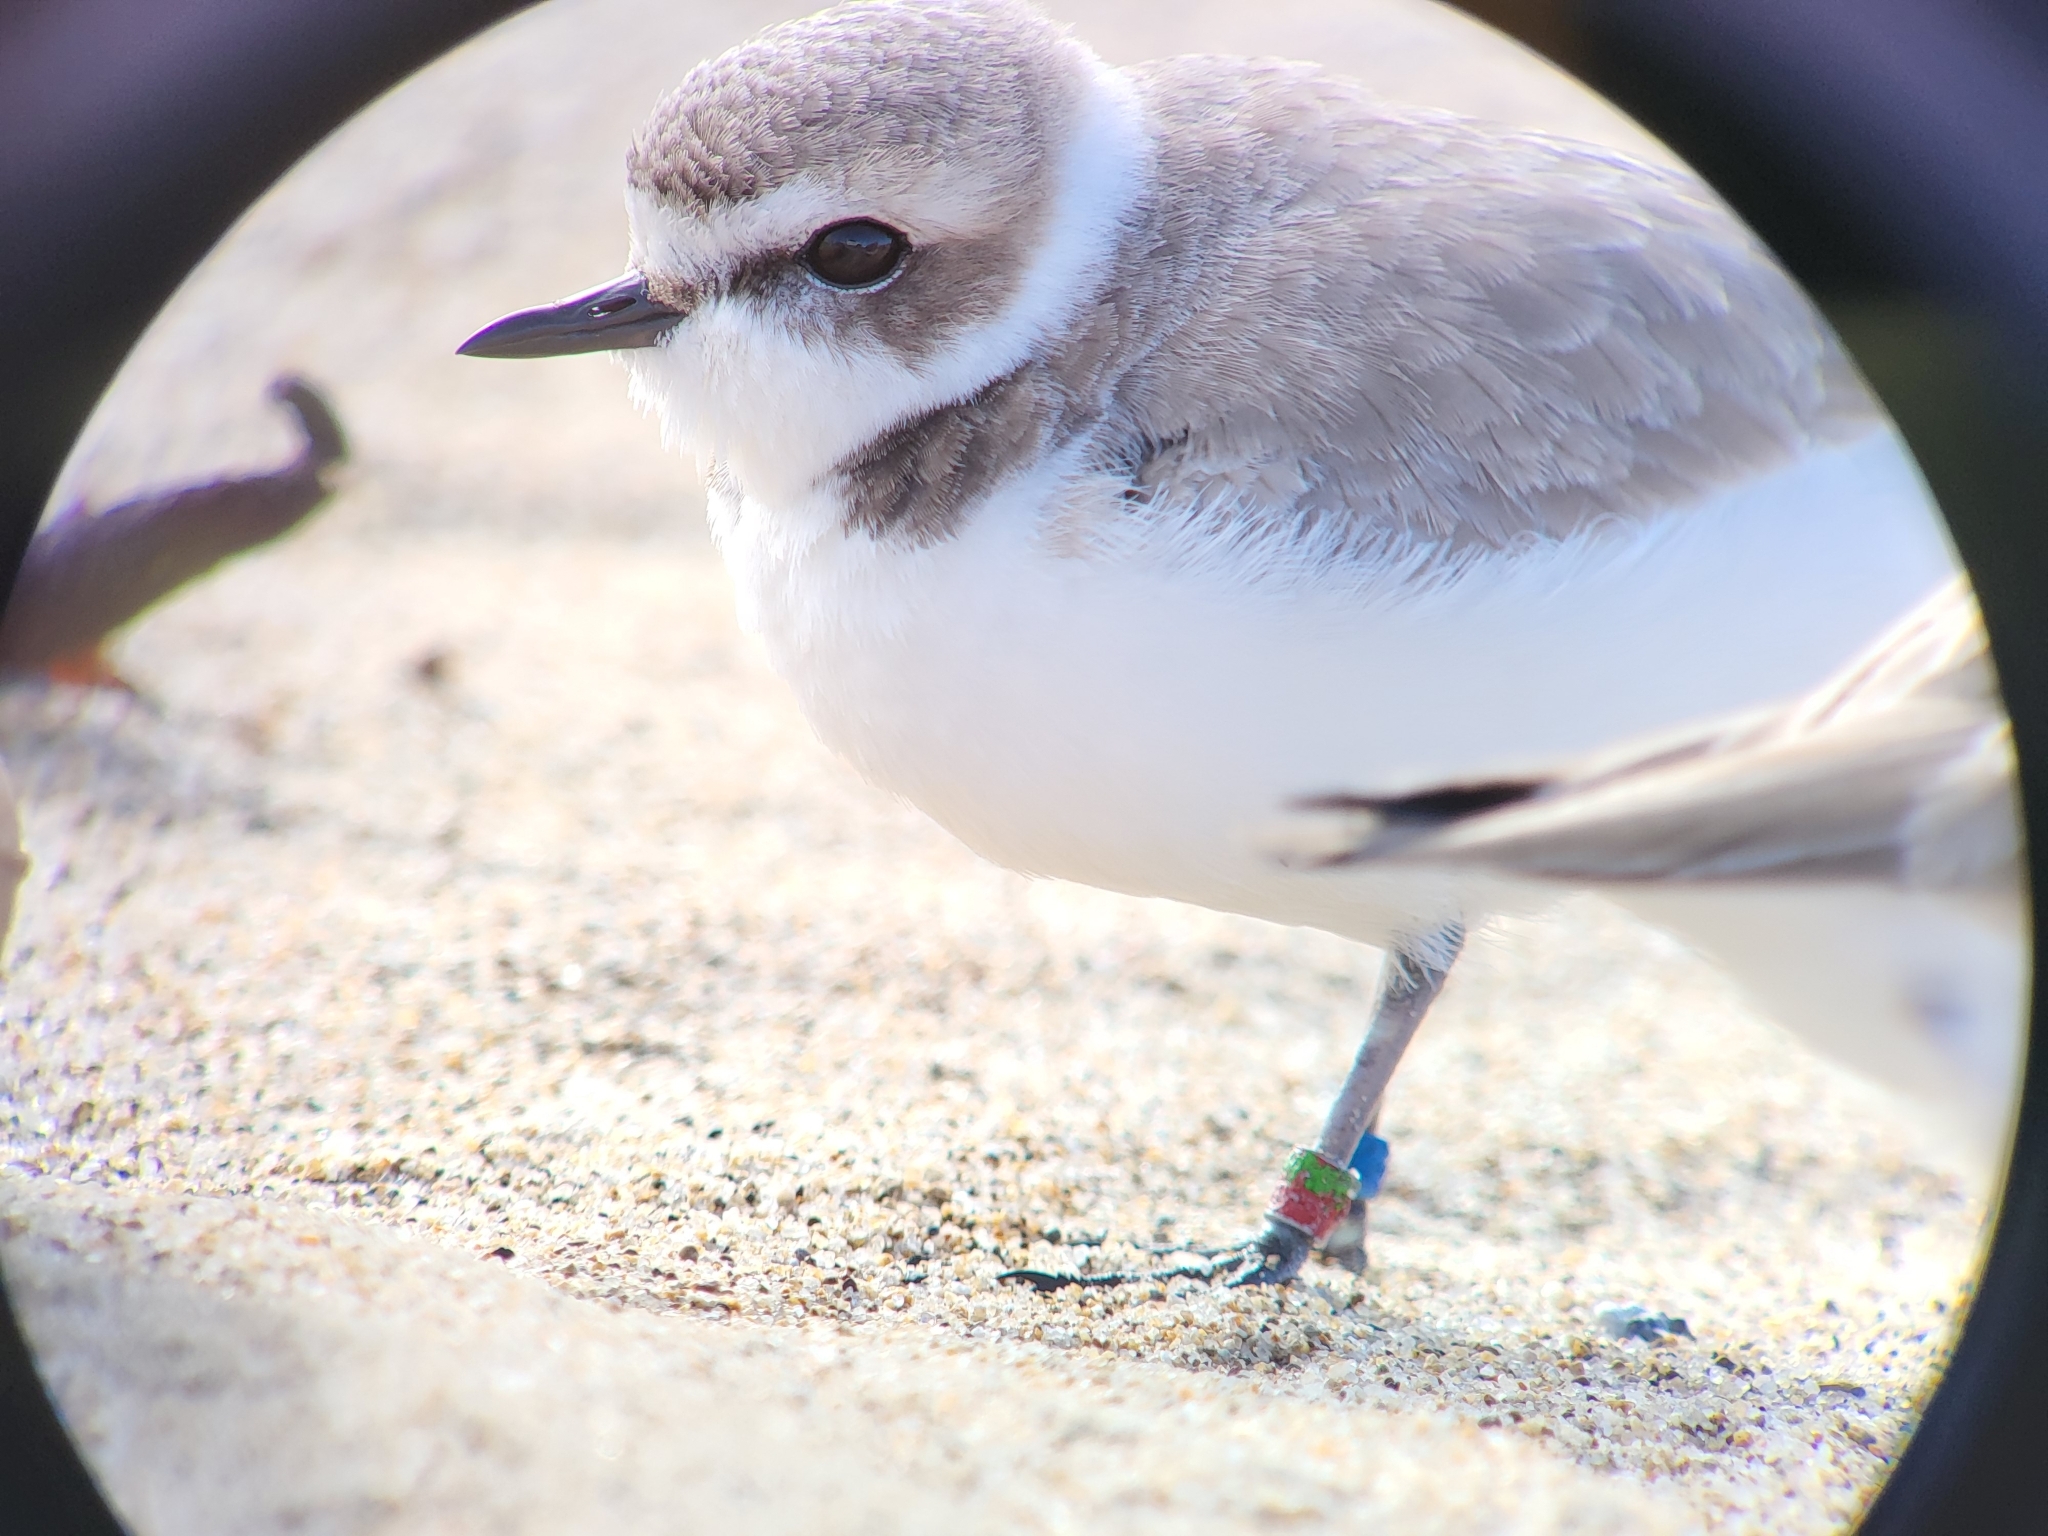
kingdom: Animalia
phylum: Chordata
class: Aves
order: Charadriiformes
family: Charadriidae
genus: Anarhynchus
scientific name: Anarhynchus
